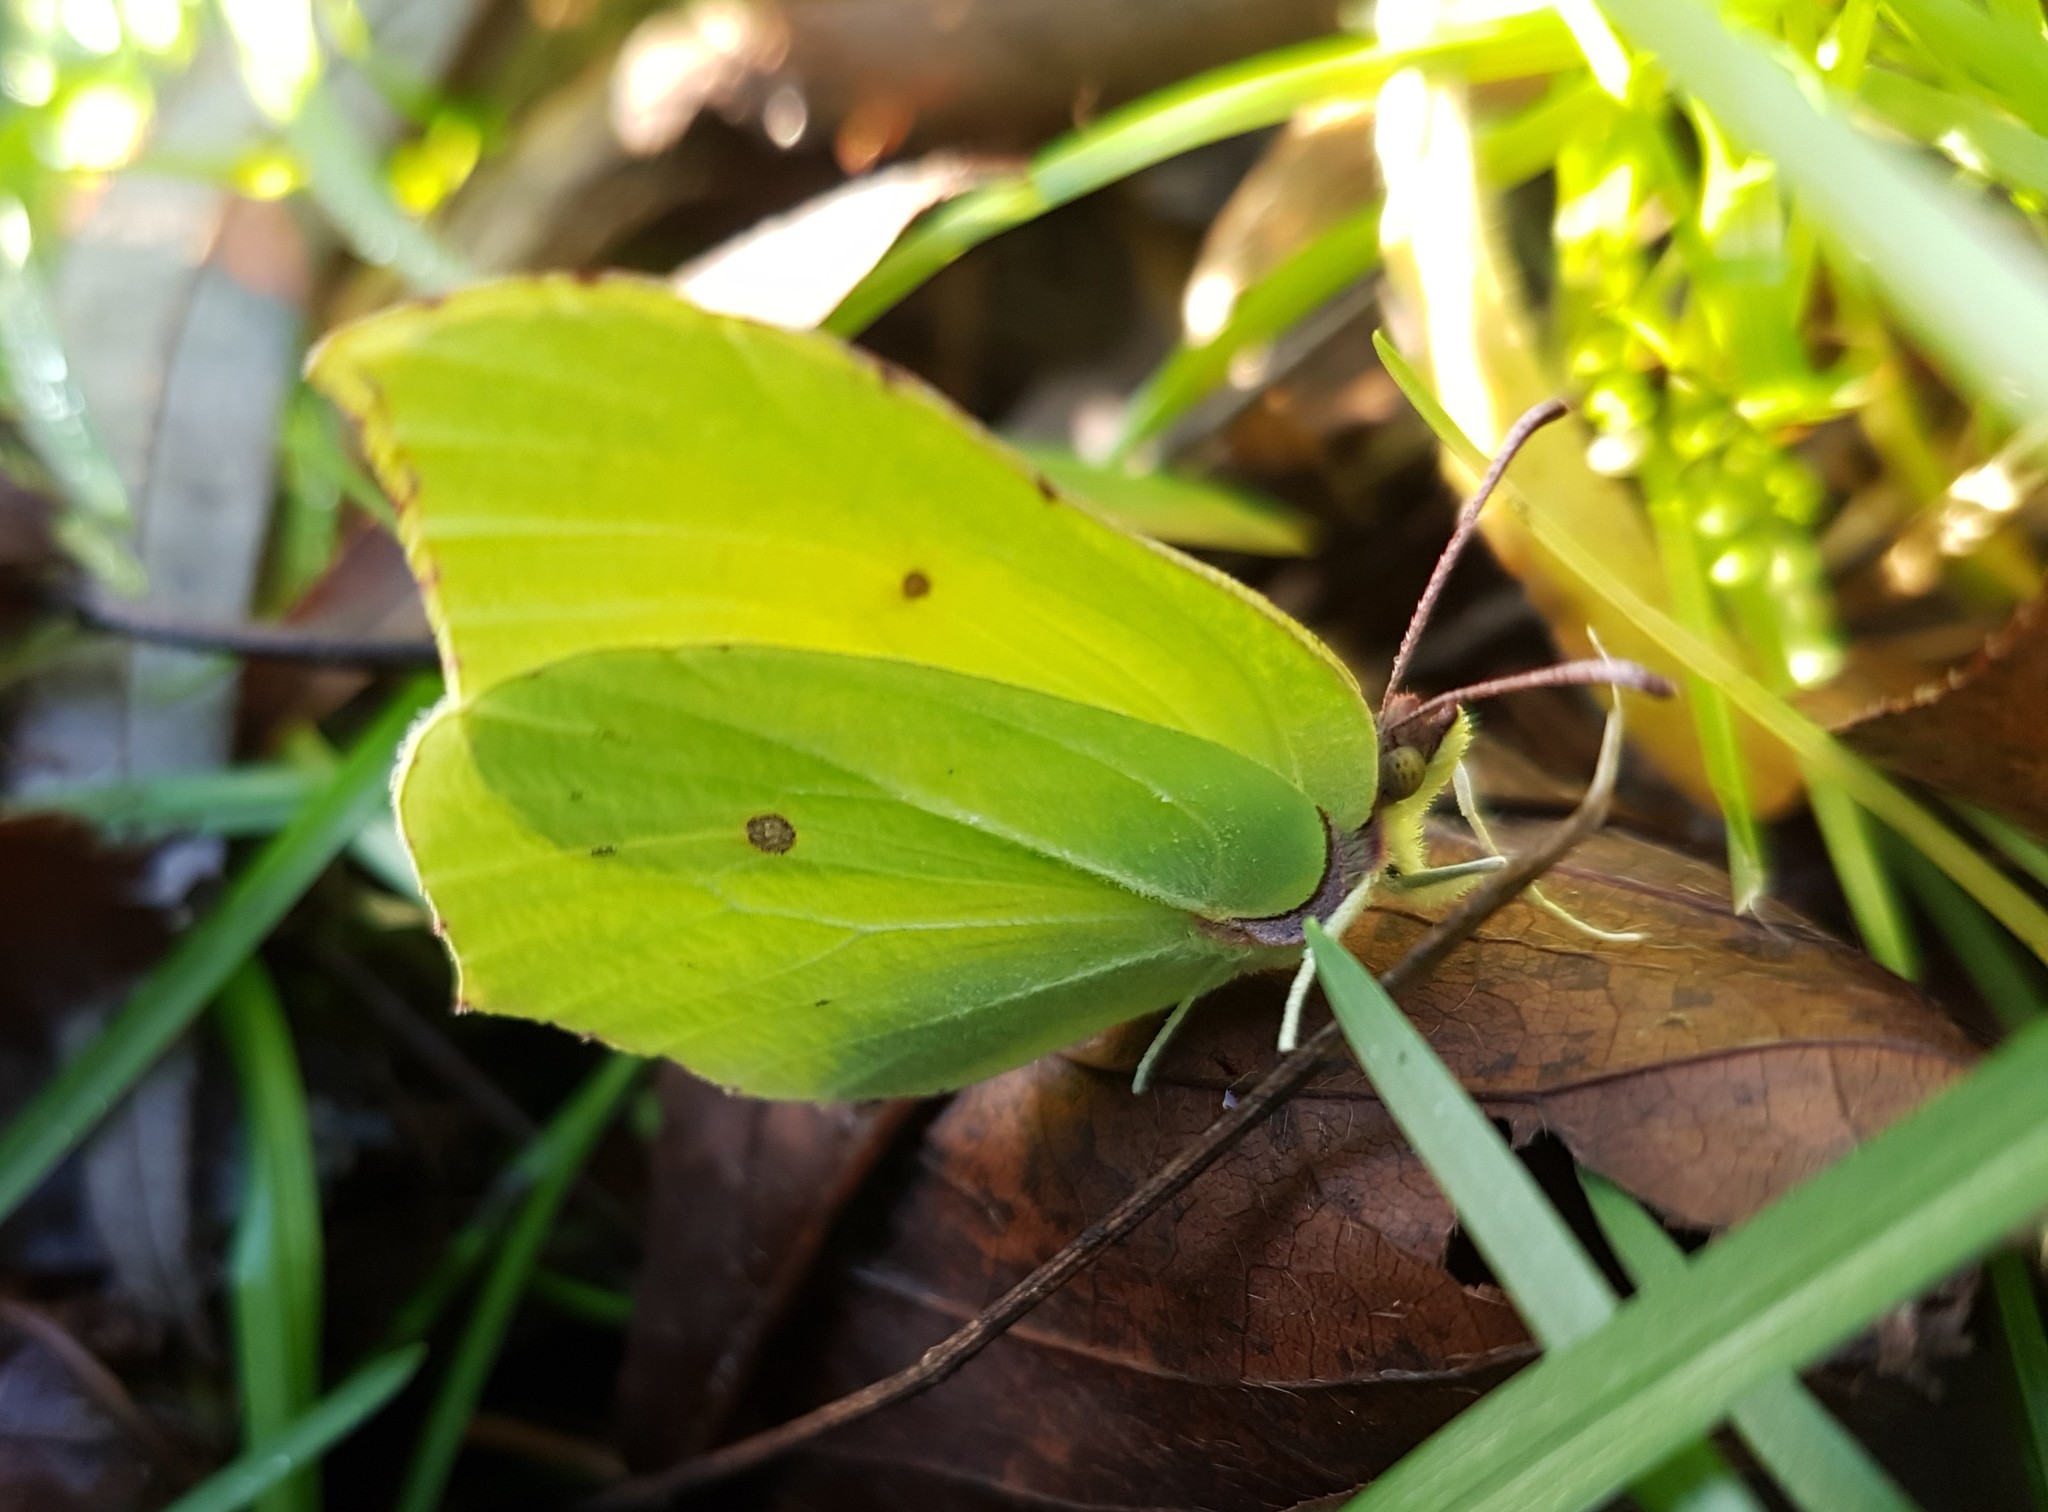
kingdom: Animalia
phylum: Arthropoda
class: Insecta
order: Lepidoptera
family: Pieridae
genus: Gonepteryx
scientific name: Gonepteryx rhamni
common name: Brimstone
